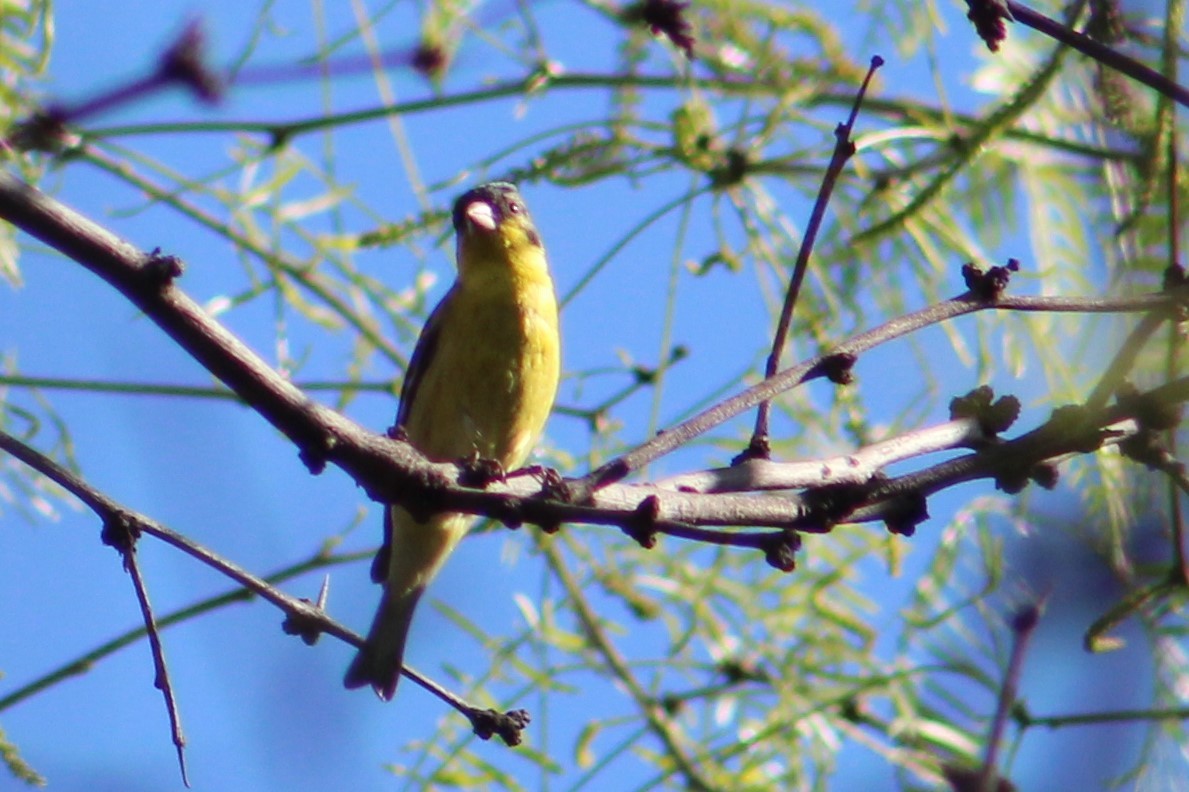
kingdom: Animalia
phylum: Chordata
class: Aves
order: Passeriformes
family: Fringillidae
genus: Spinus
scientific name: Spinus psaltria
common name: Lesser goldfinch
